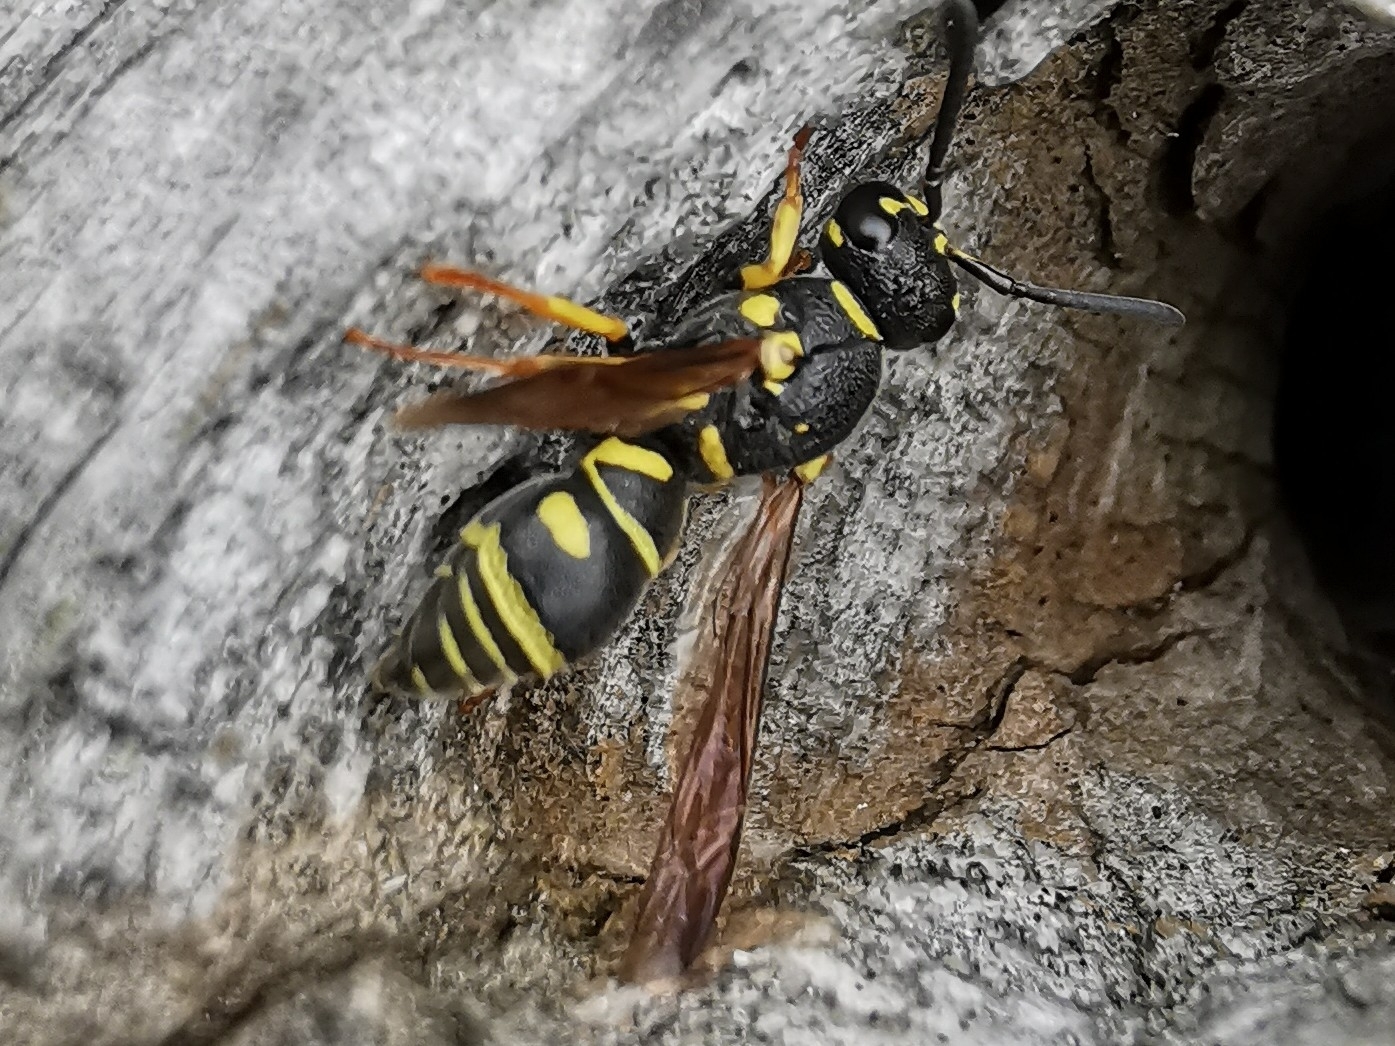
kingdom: Animalia
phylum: Arthropoda
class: Insecta
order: Hymenoptera
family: Eumenidae
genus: Parancistrocerus
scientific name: Parancistrocerus leionotus
